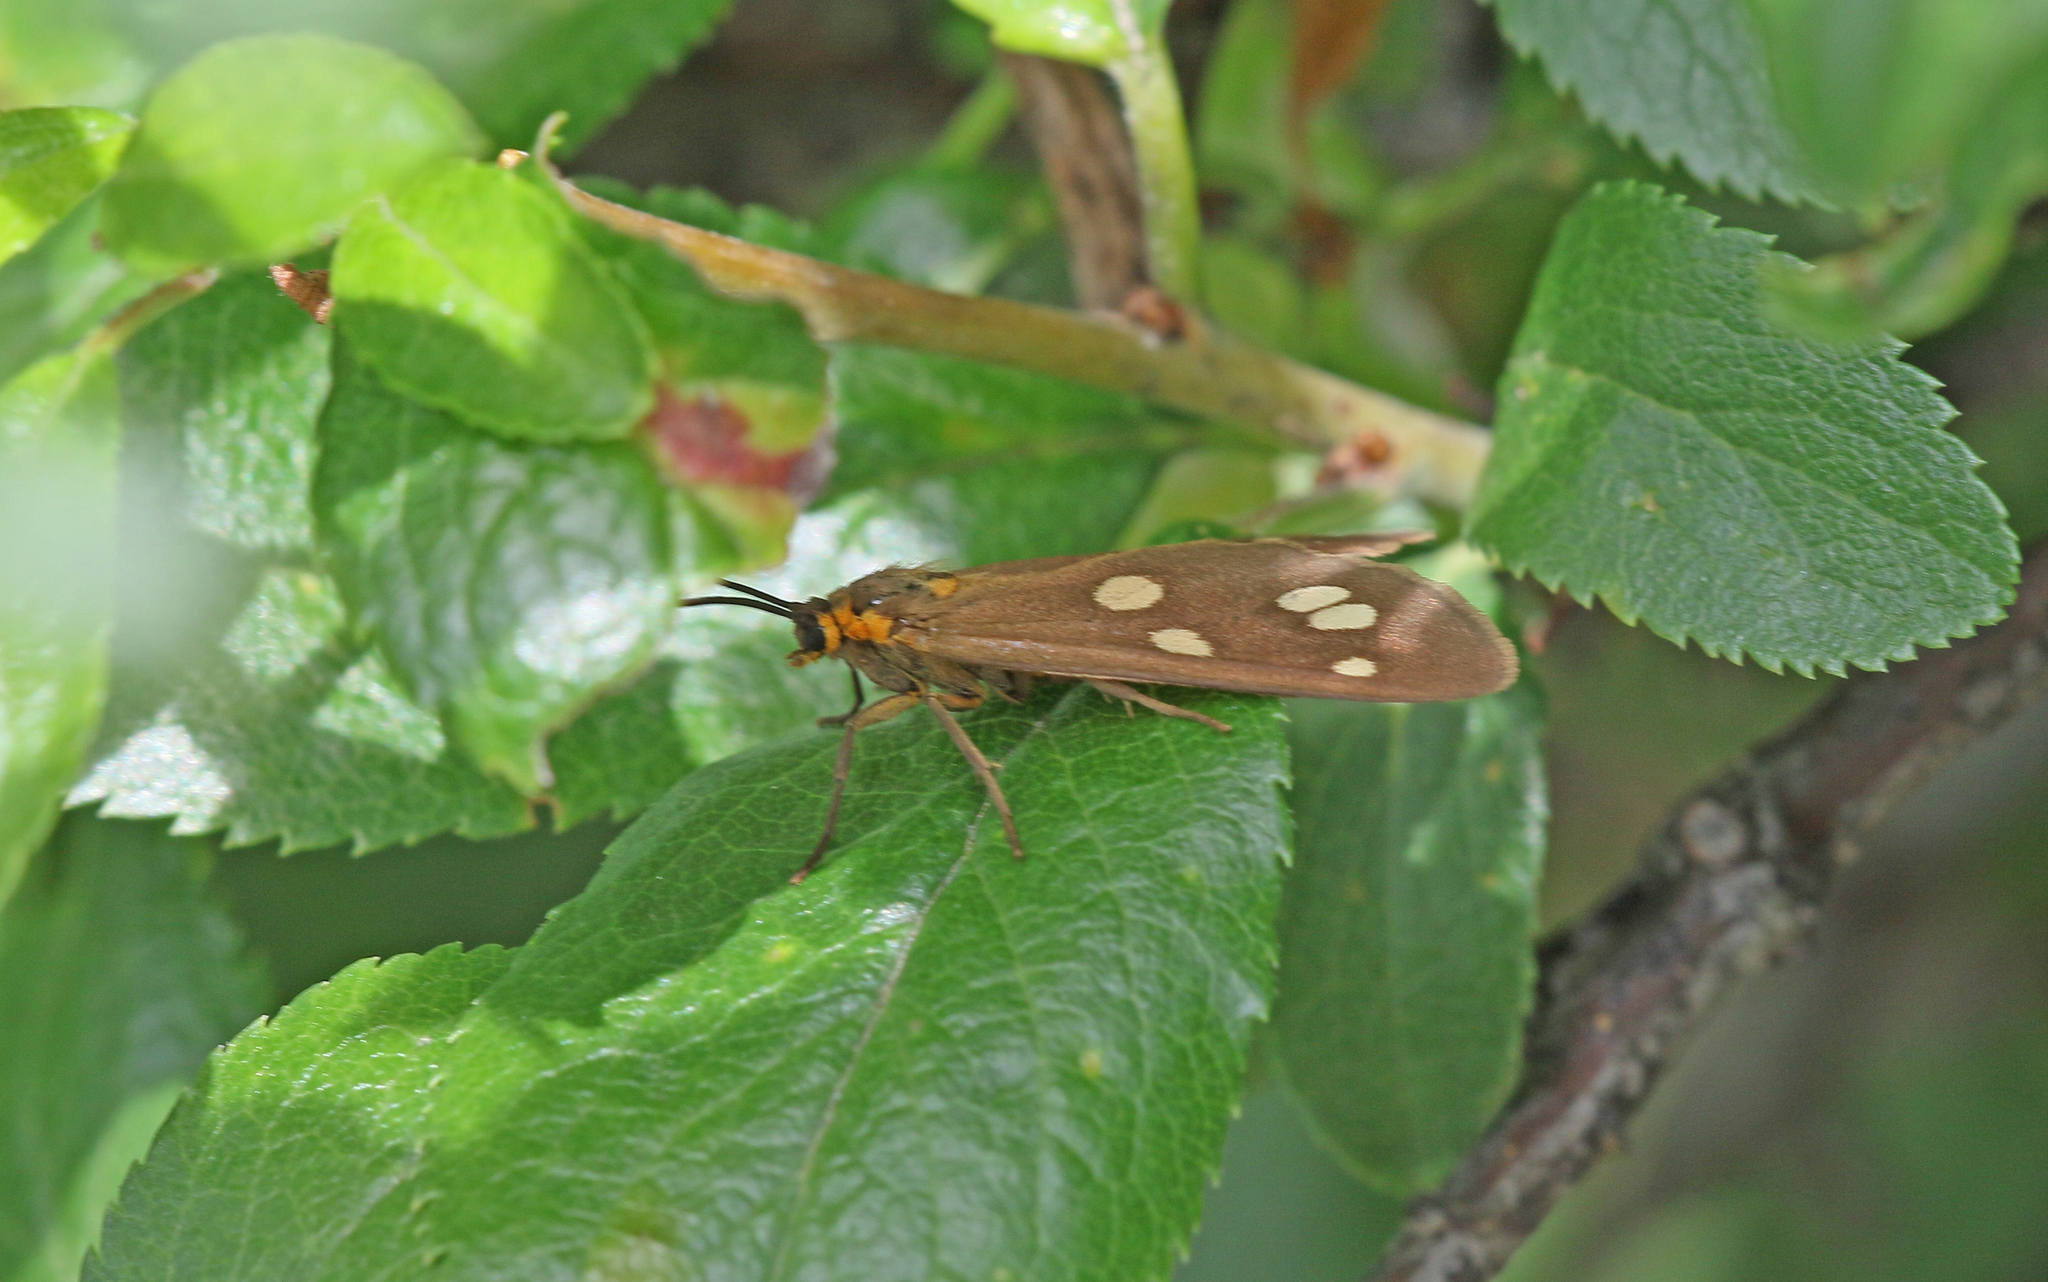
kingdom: Animalia
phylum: Arthropoda
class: Insecta
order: Lepidoptera
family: Erebidae
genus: Dysauxes
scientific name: Dysauxes punctata
